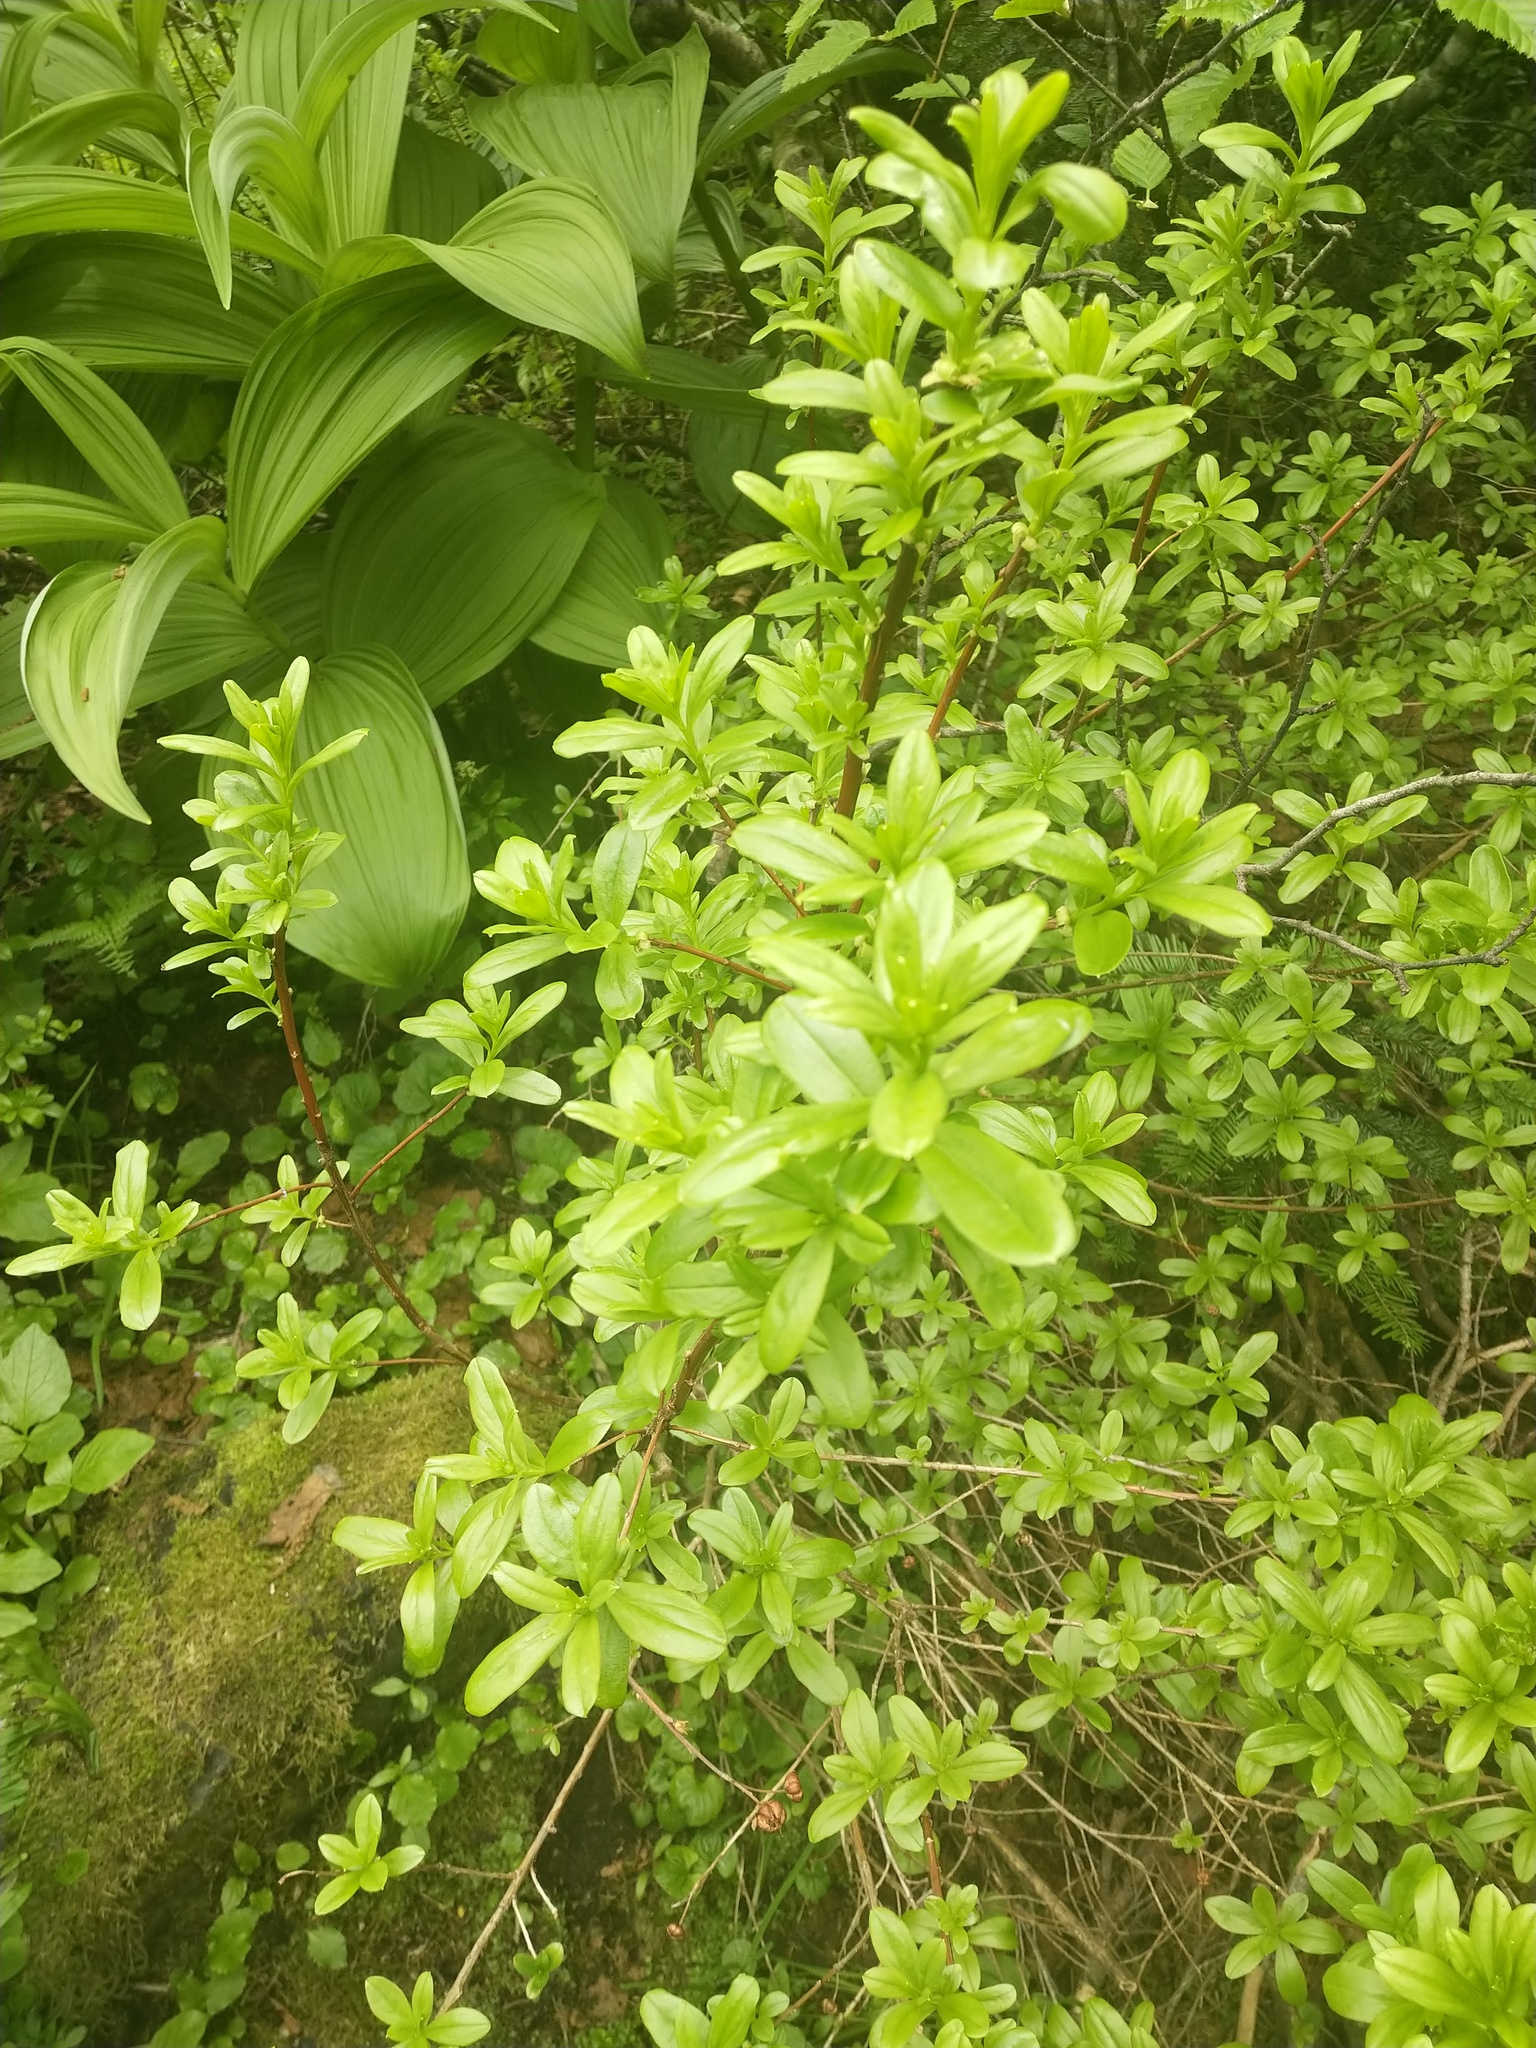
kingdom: Plantae
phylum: Tracheophyta
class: Magnoliopsida
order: Ericales
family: Ericaceae
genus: Elliottia
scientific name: Elliottia pyroliflora
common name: Copperbush
